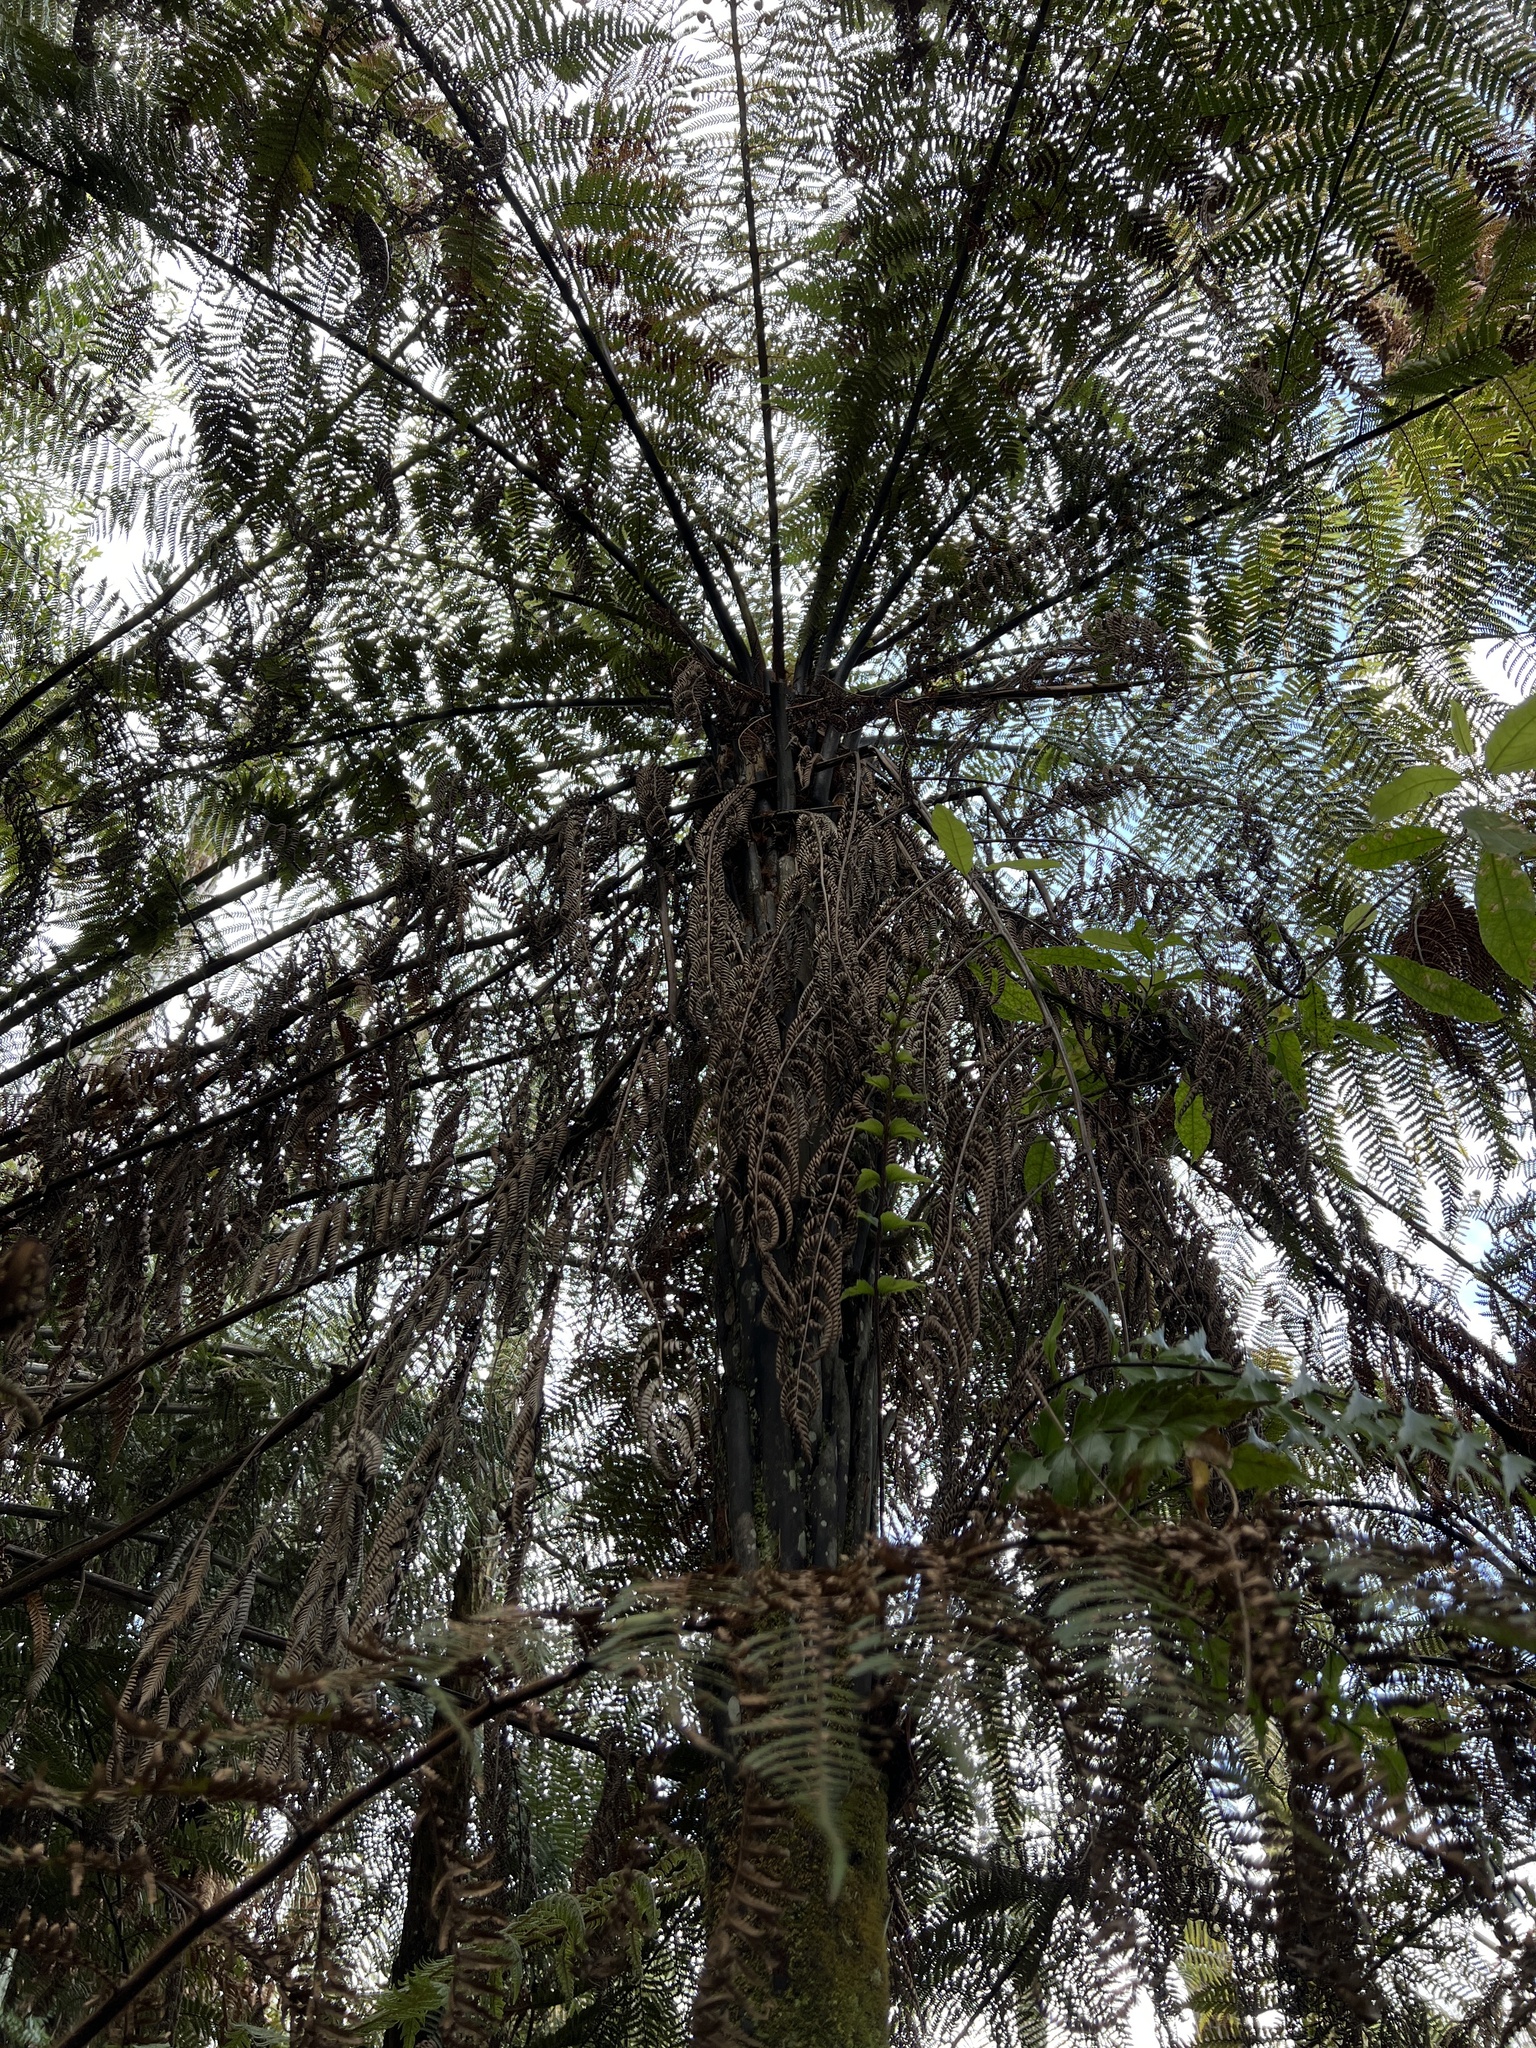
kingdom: Plantae
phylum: Tracheophyta
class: Polypodiopsida
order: Cyatheales
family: Dicksoniaceae
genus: Dicksonia
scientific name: Dicksonia squarrosa
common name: Hard treefern
